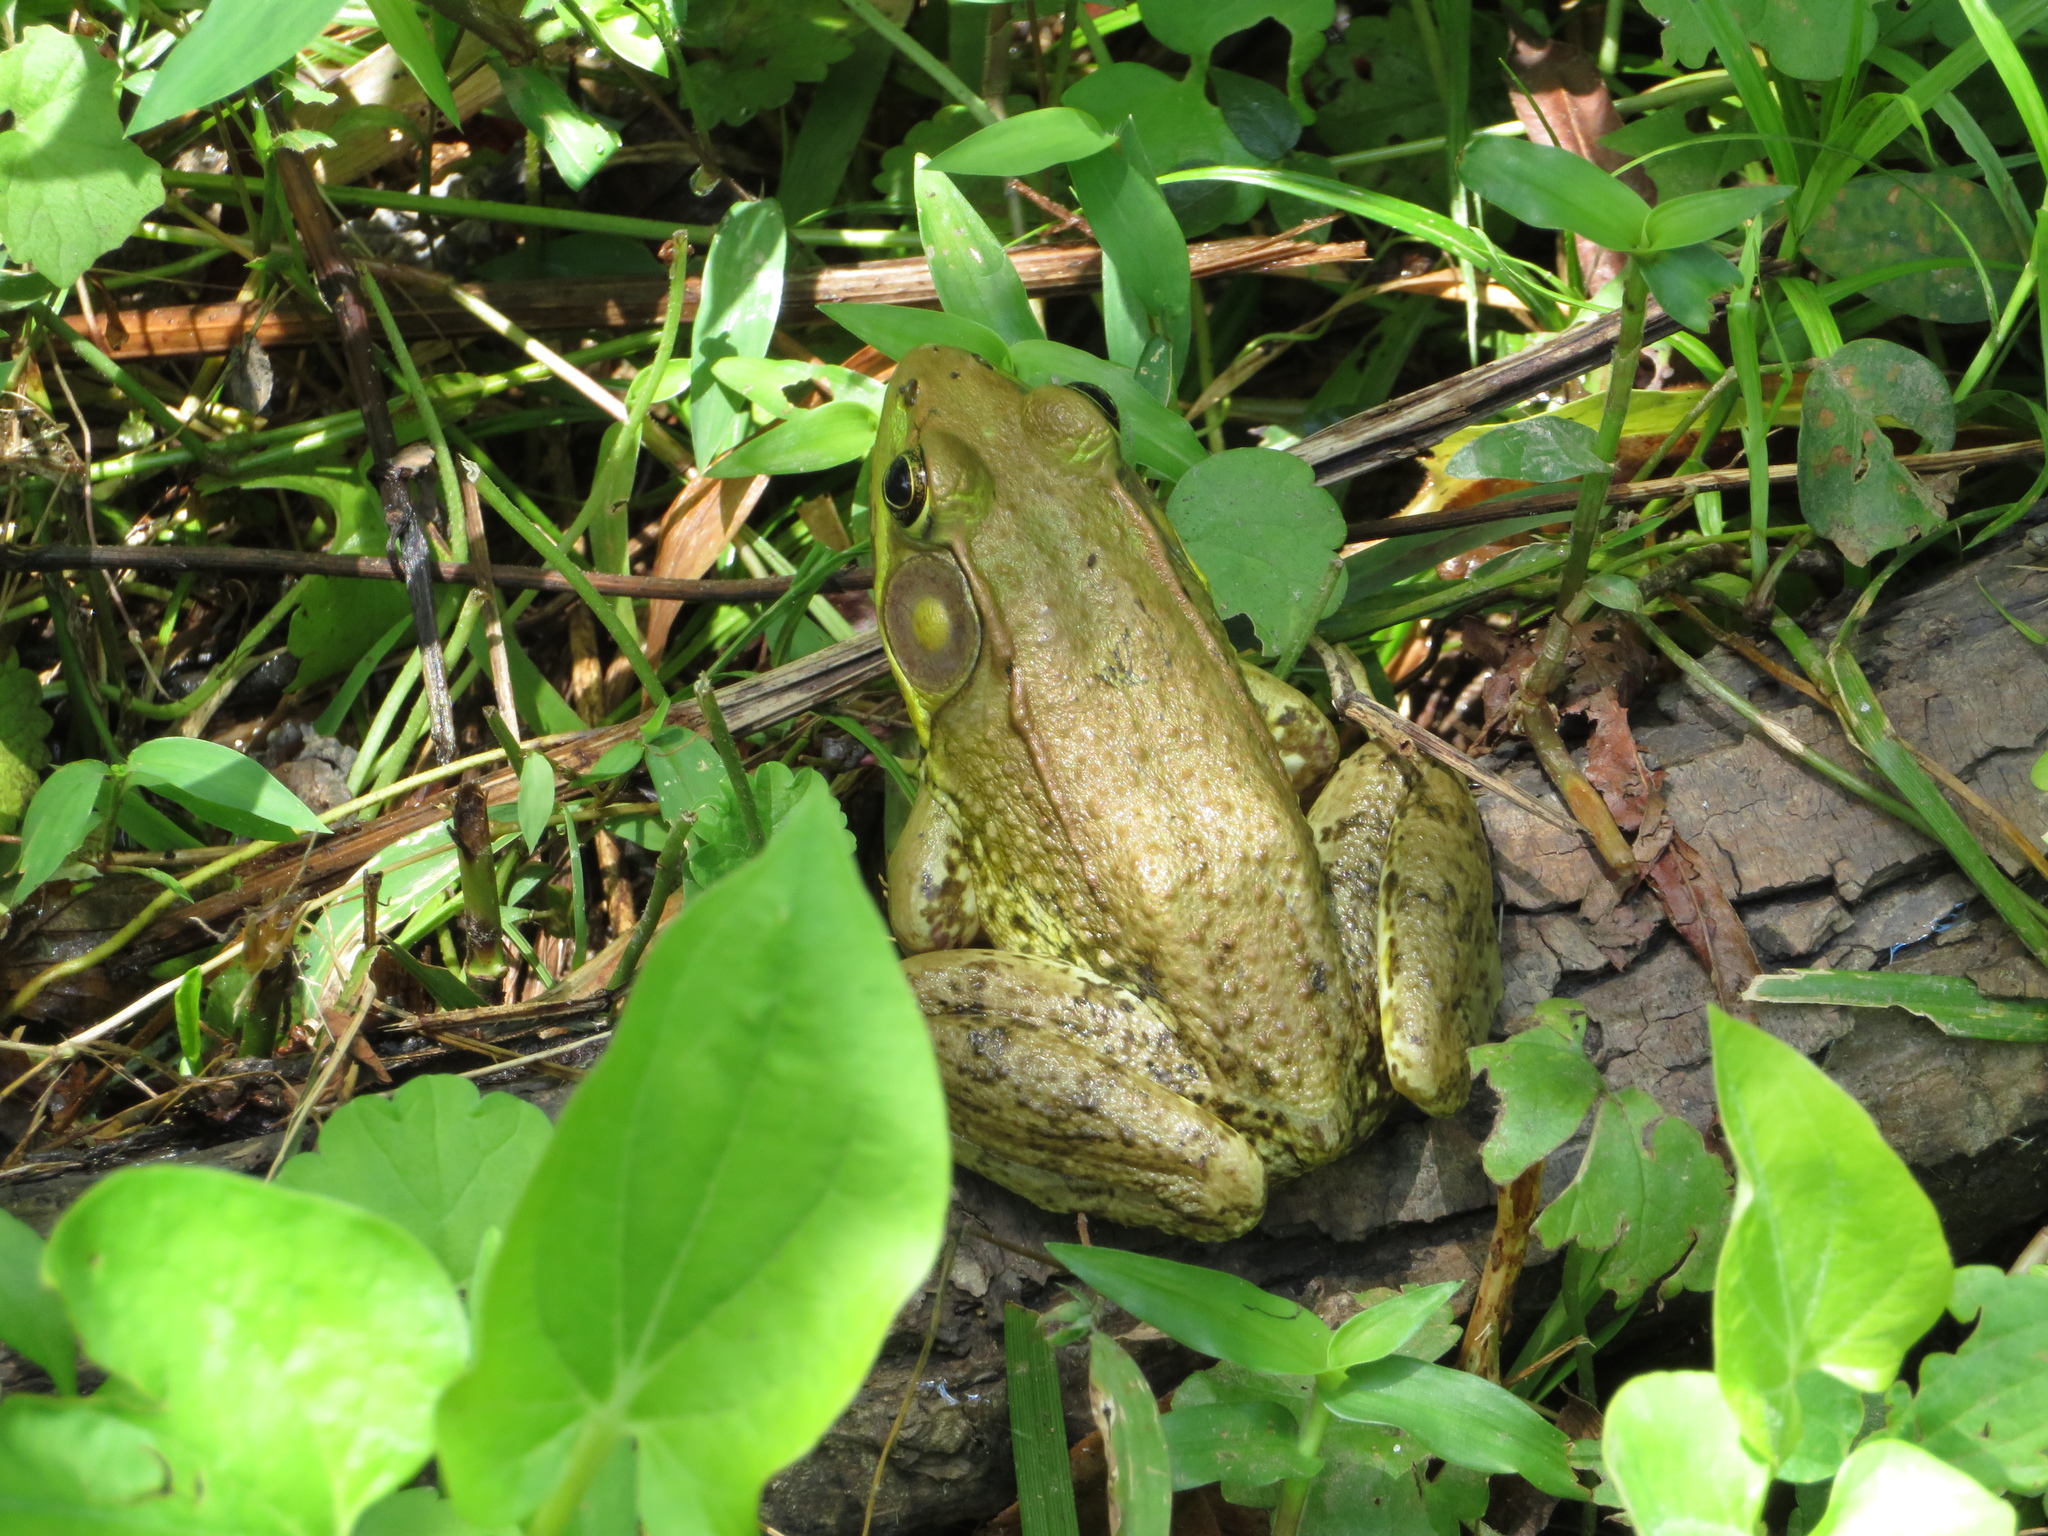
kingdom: Animalia
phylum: Chordata
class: Amphibia
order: Anura
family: Ranidae
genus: Lithobates
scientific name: Lithobates clamitans
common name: Green frog
